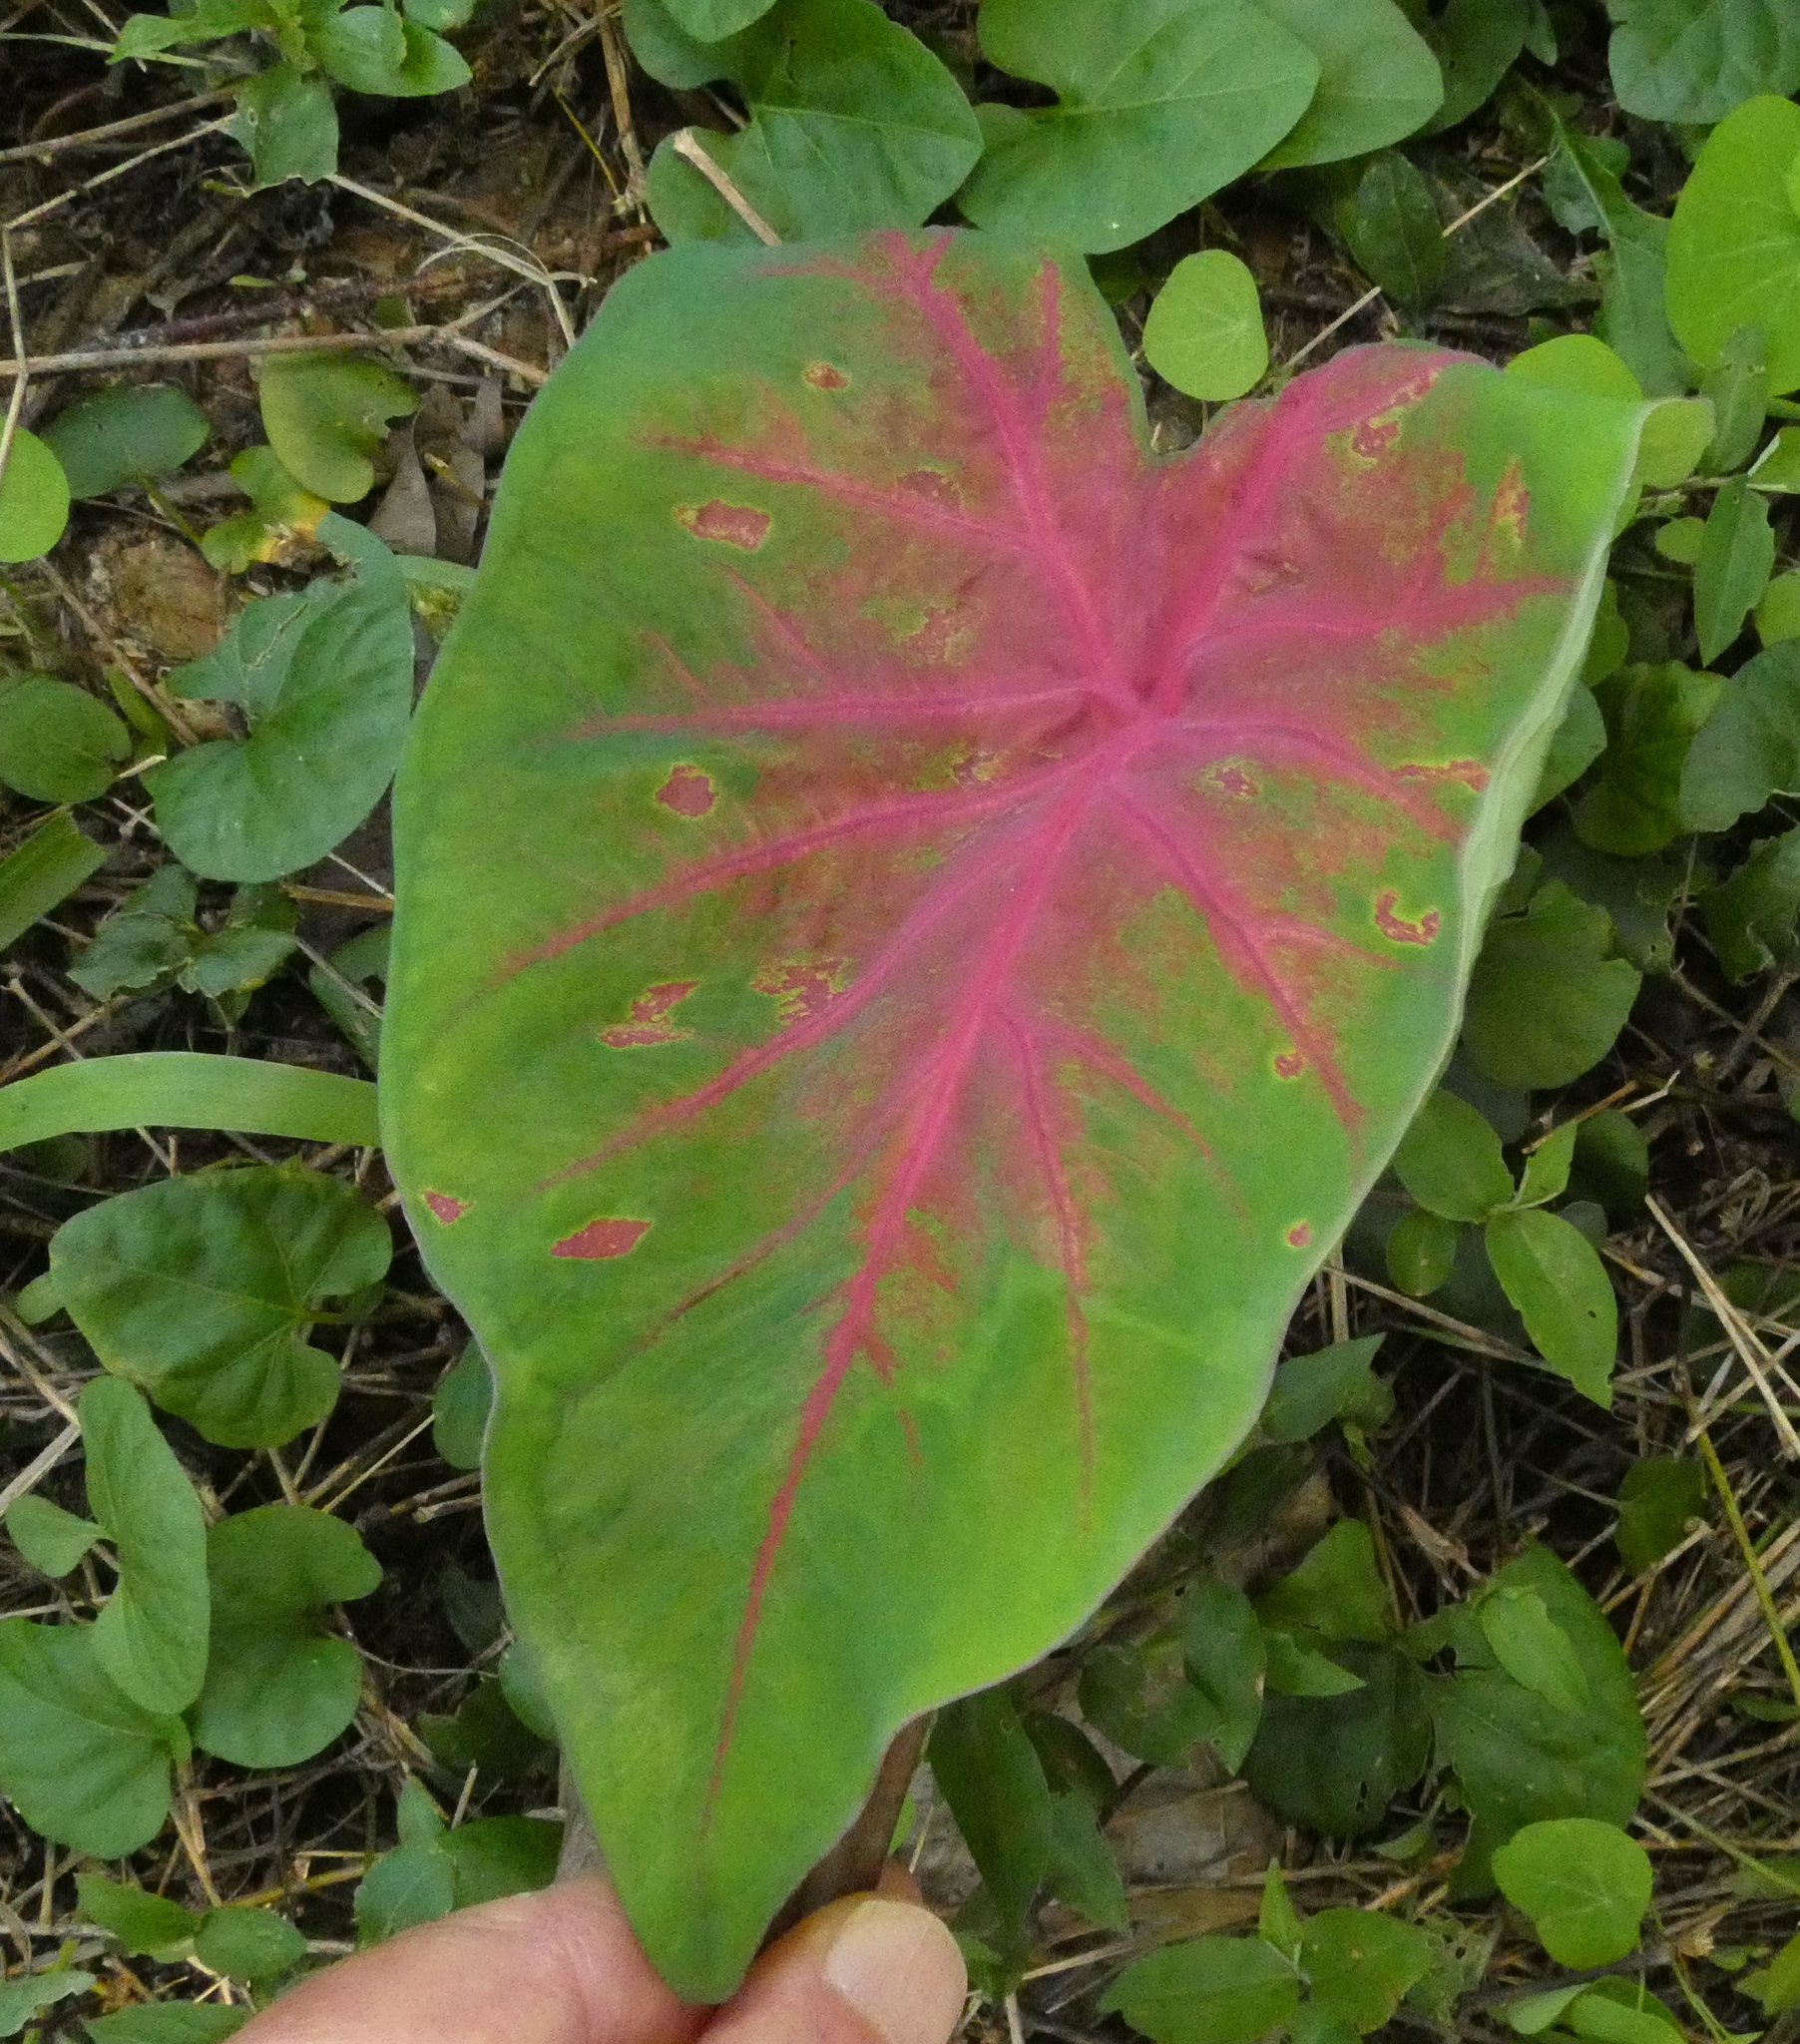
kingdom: Plantae
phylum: Tracheophyta
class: Liliopsida
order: Alismatales
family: Araceae
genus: Caladium
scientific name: Caladium bicolor
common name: Artist's pallet
